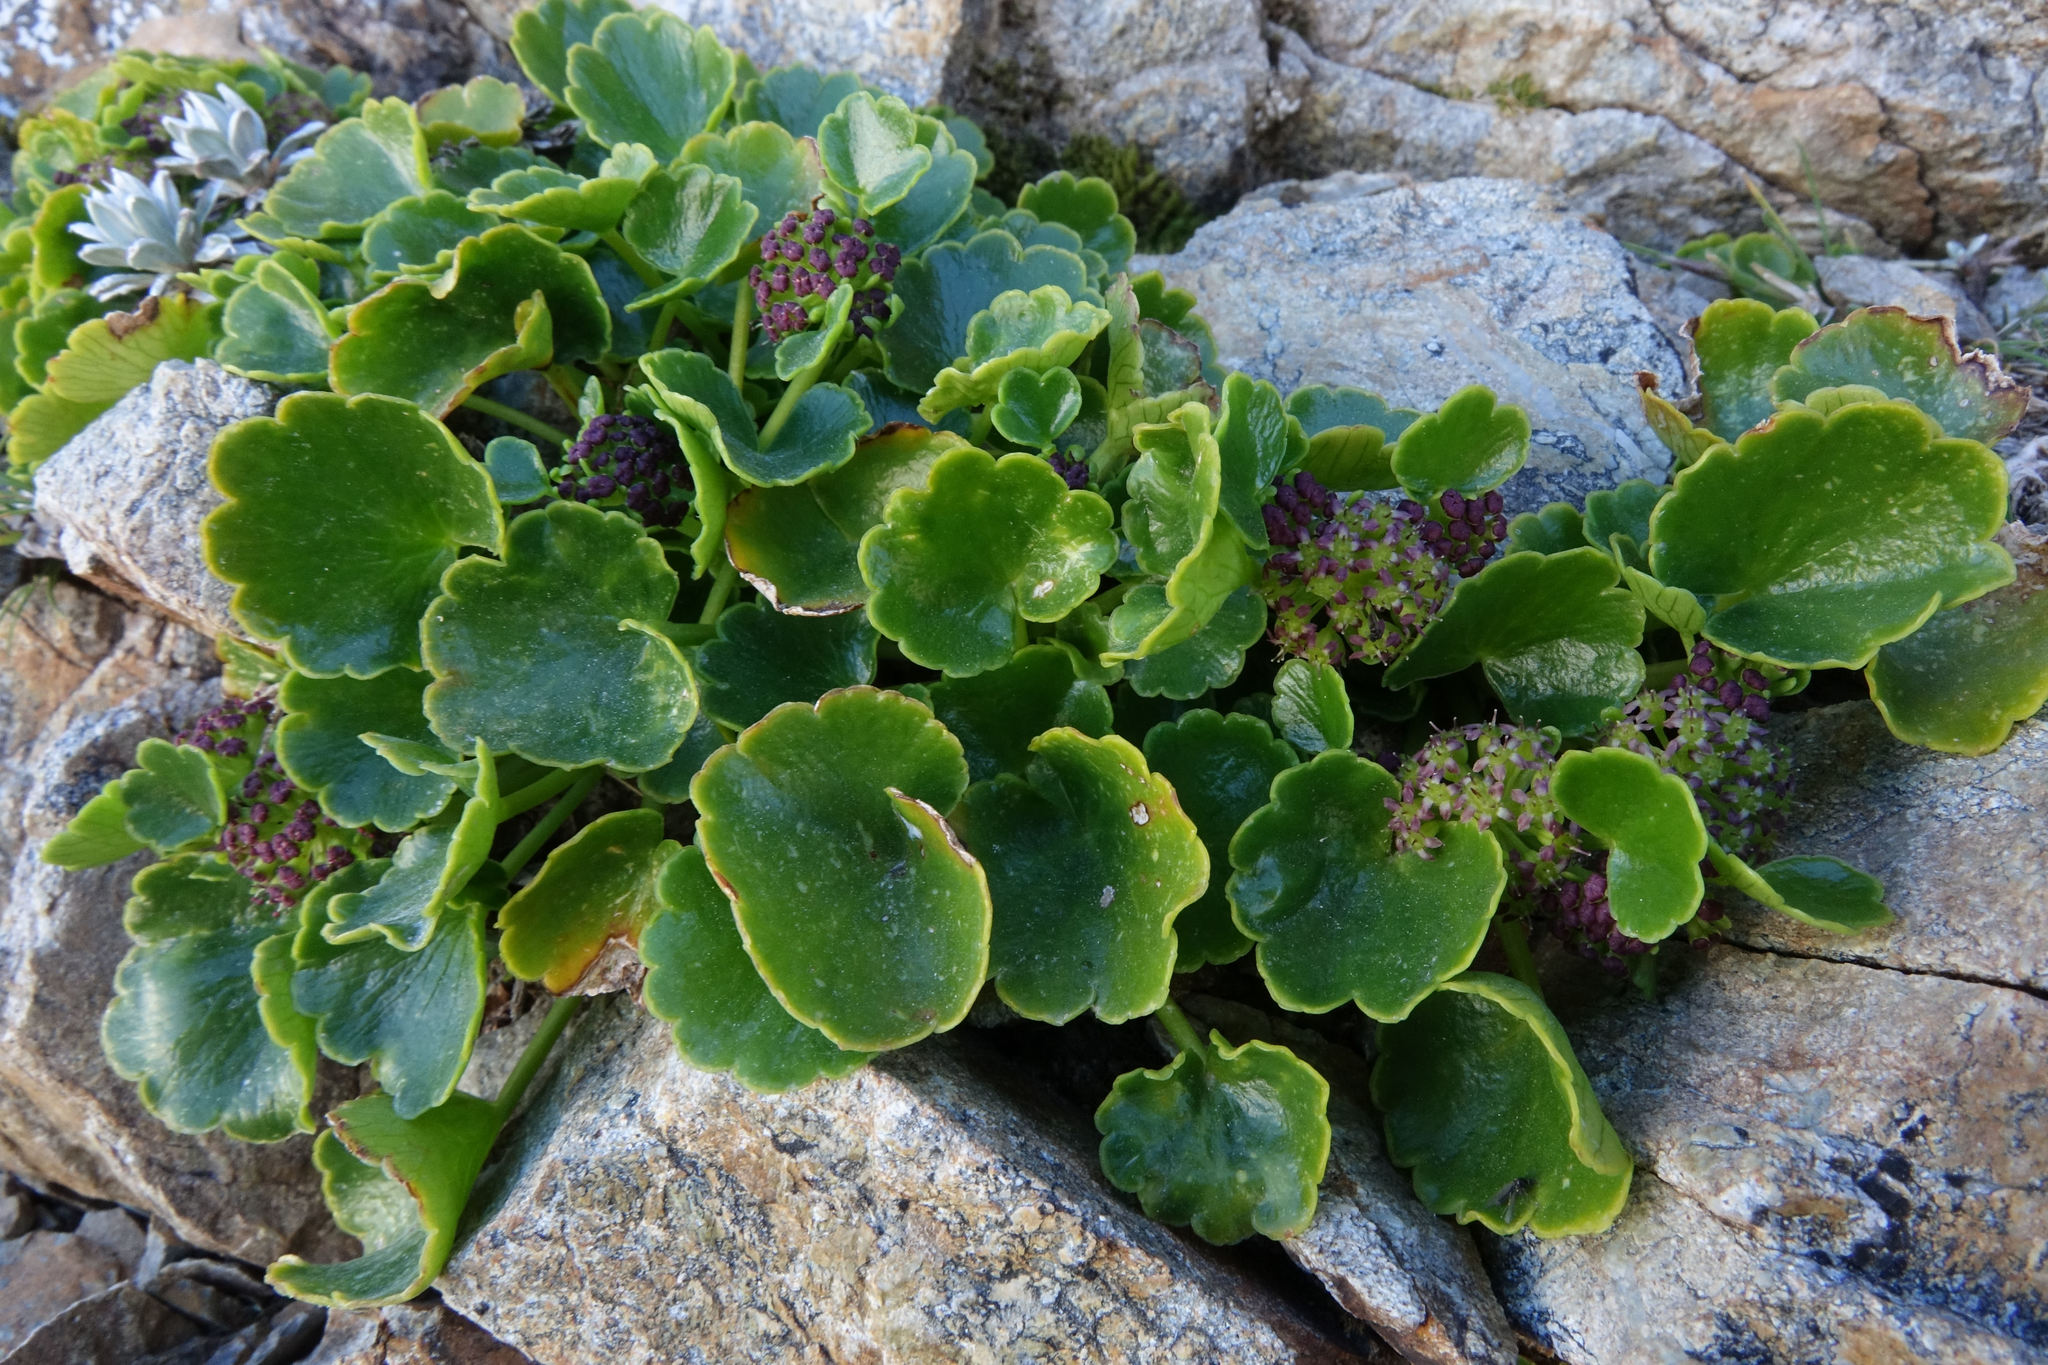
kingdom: Plantae
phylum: Tracheophyta
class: Magnoliopsida
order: Apiales
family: Apiaceae
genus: Azorella
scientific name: Azorella haastii
